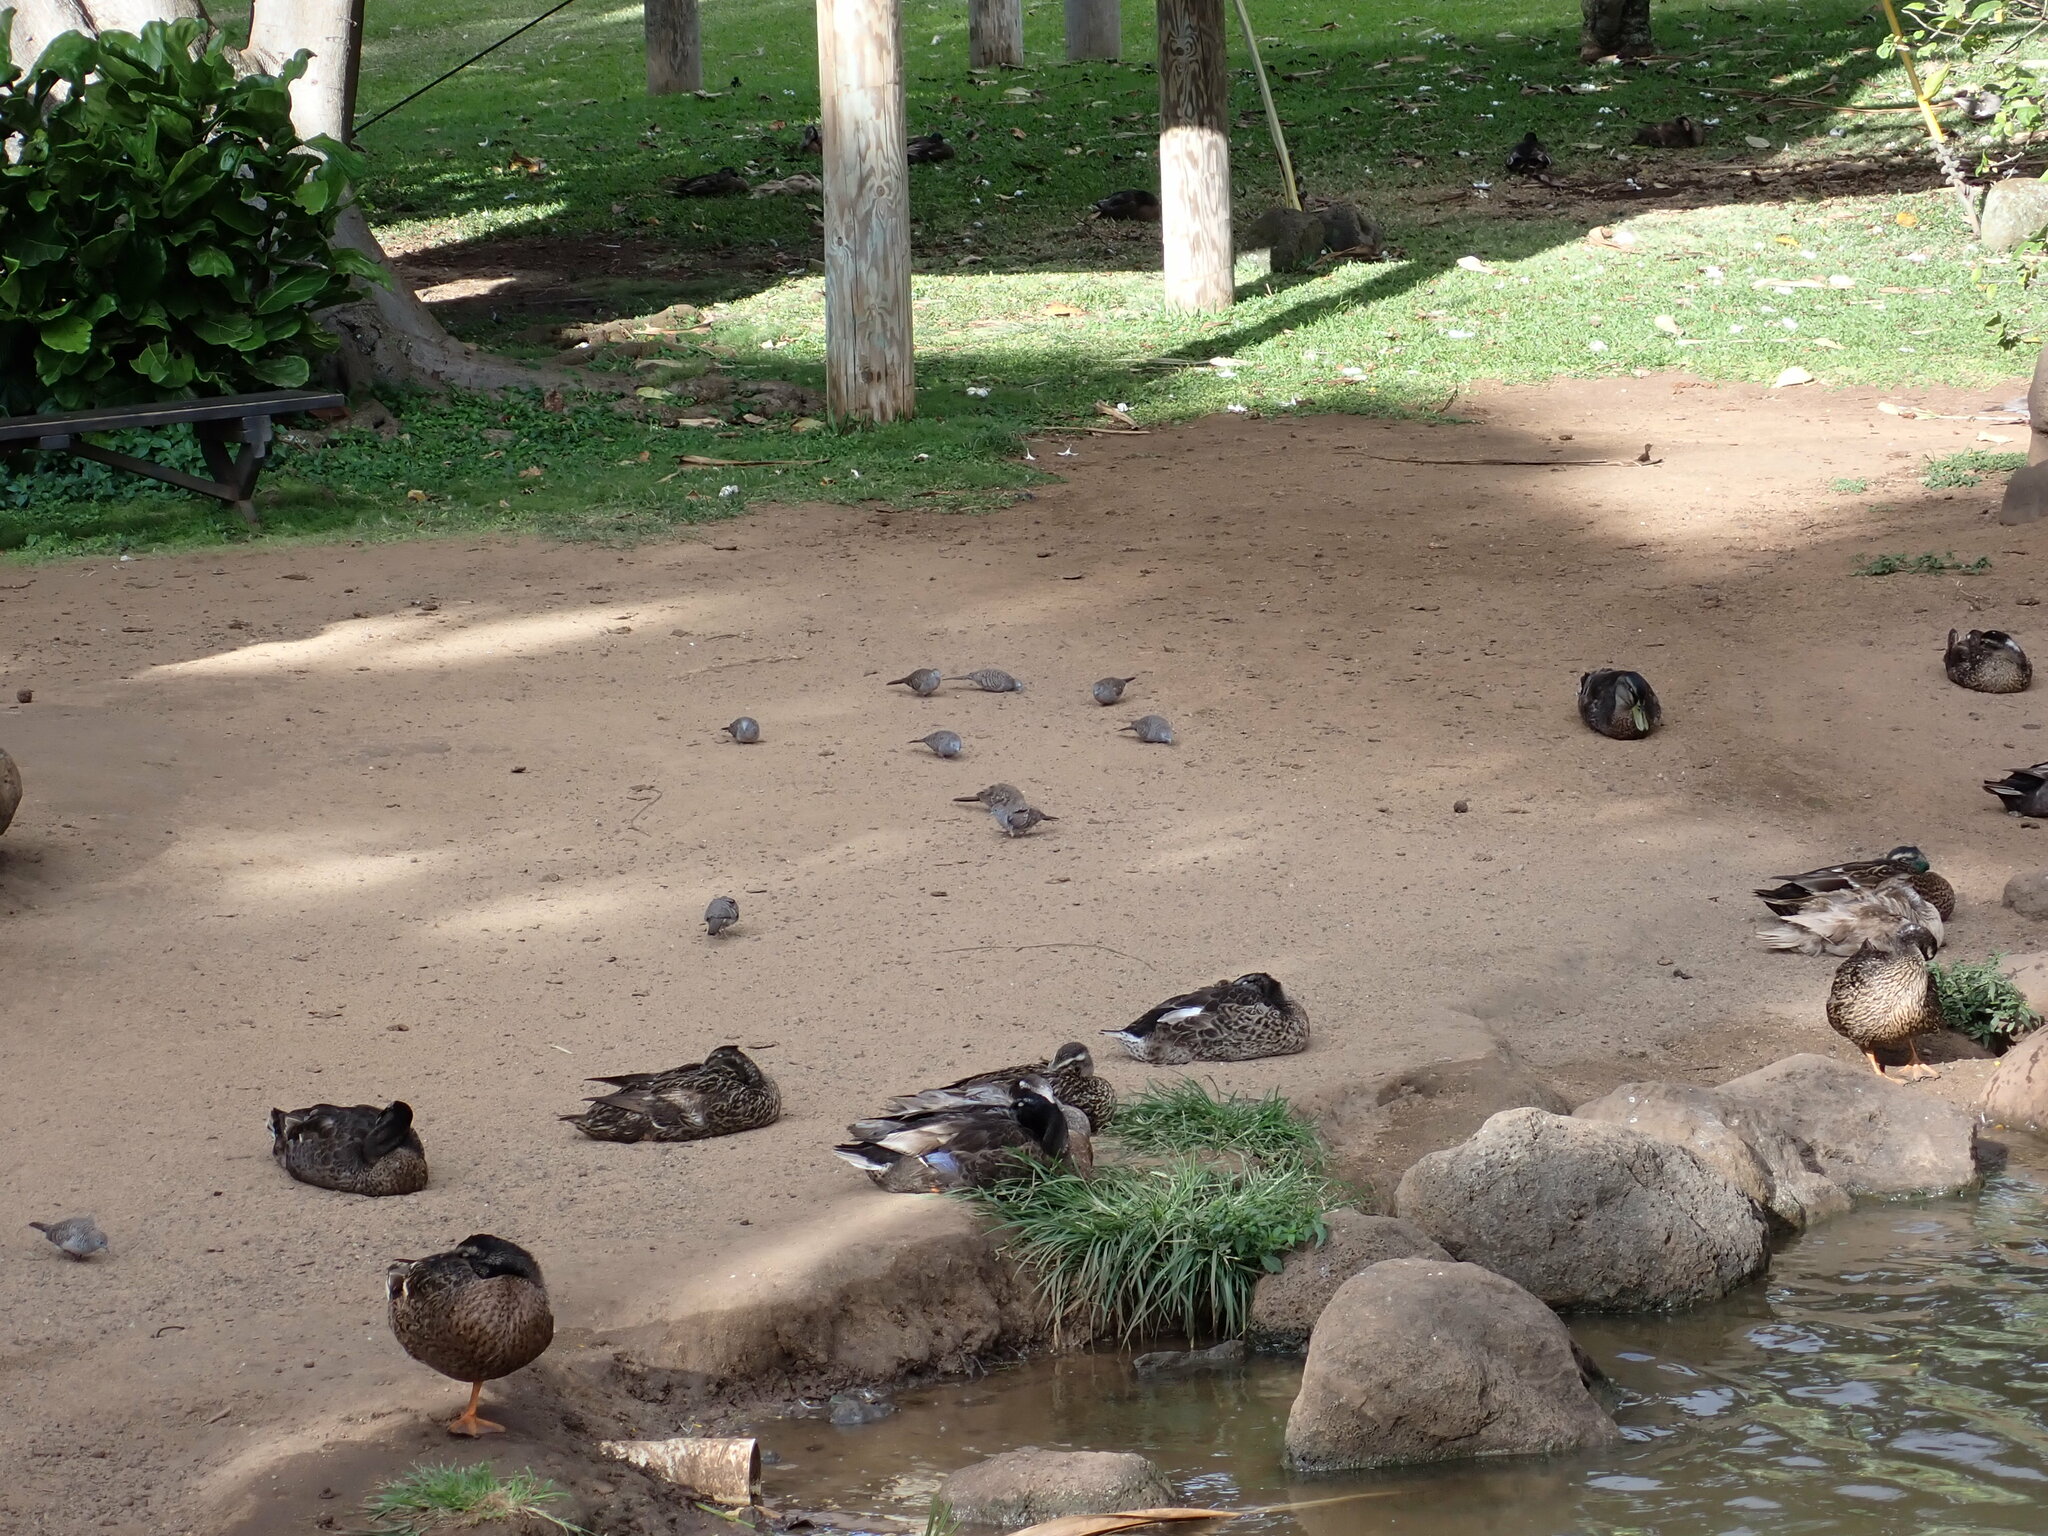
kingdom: Animalia
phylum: Chordata
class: Aves
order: Columbiformes
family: Columbidae
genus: Geopelia
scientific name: Geopelia striata
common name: Zebra dove
